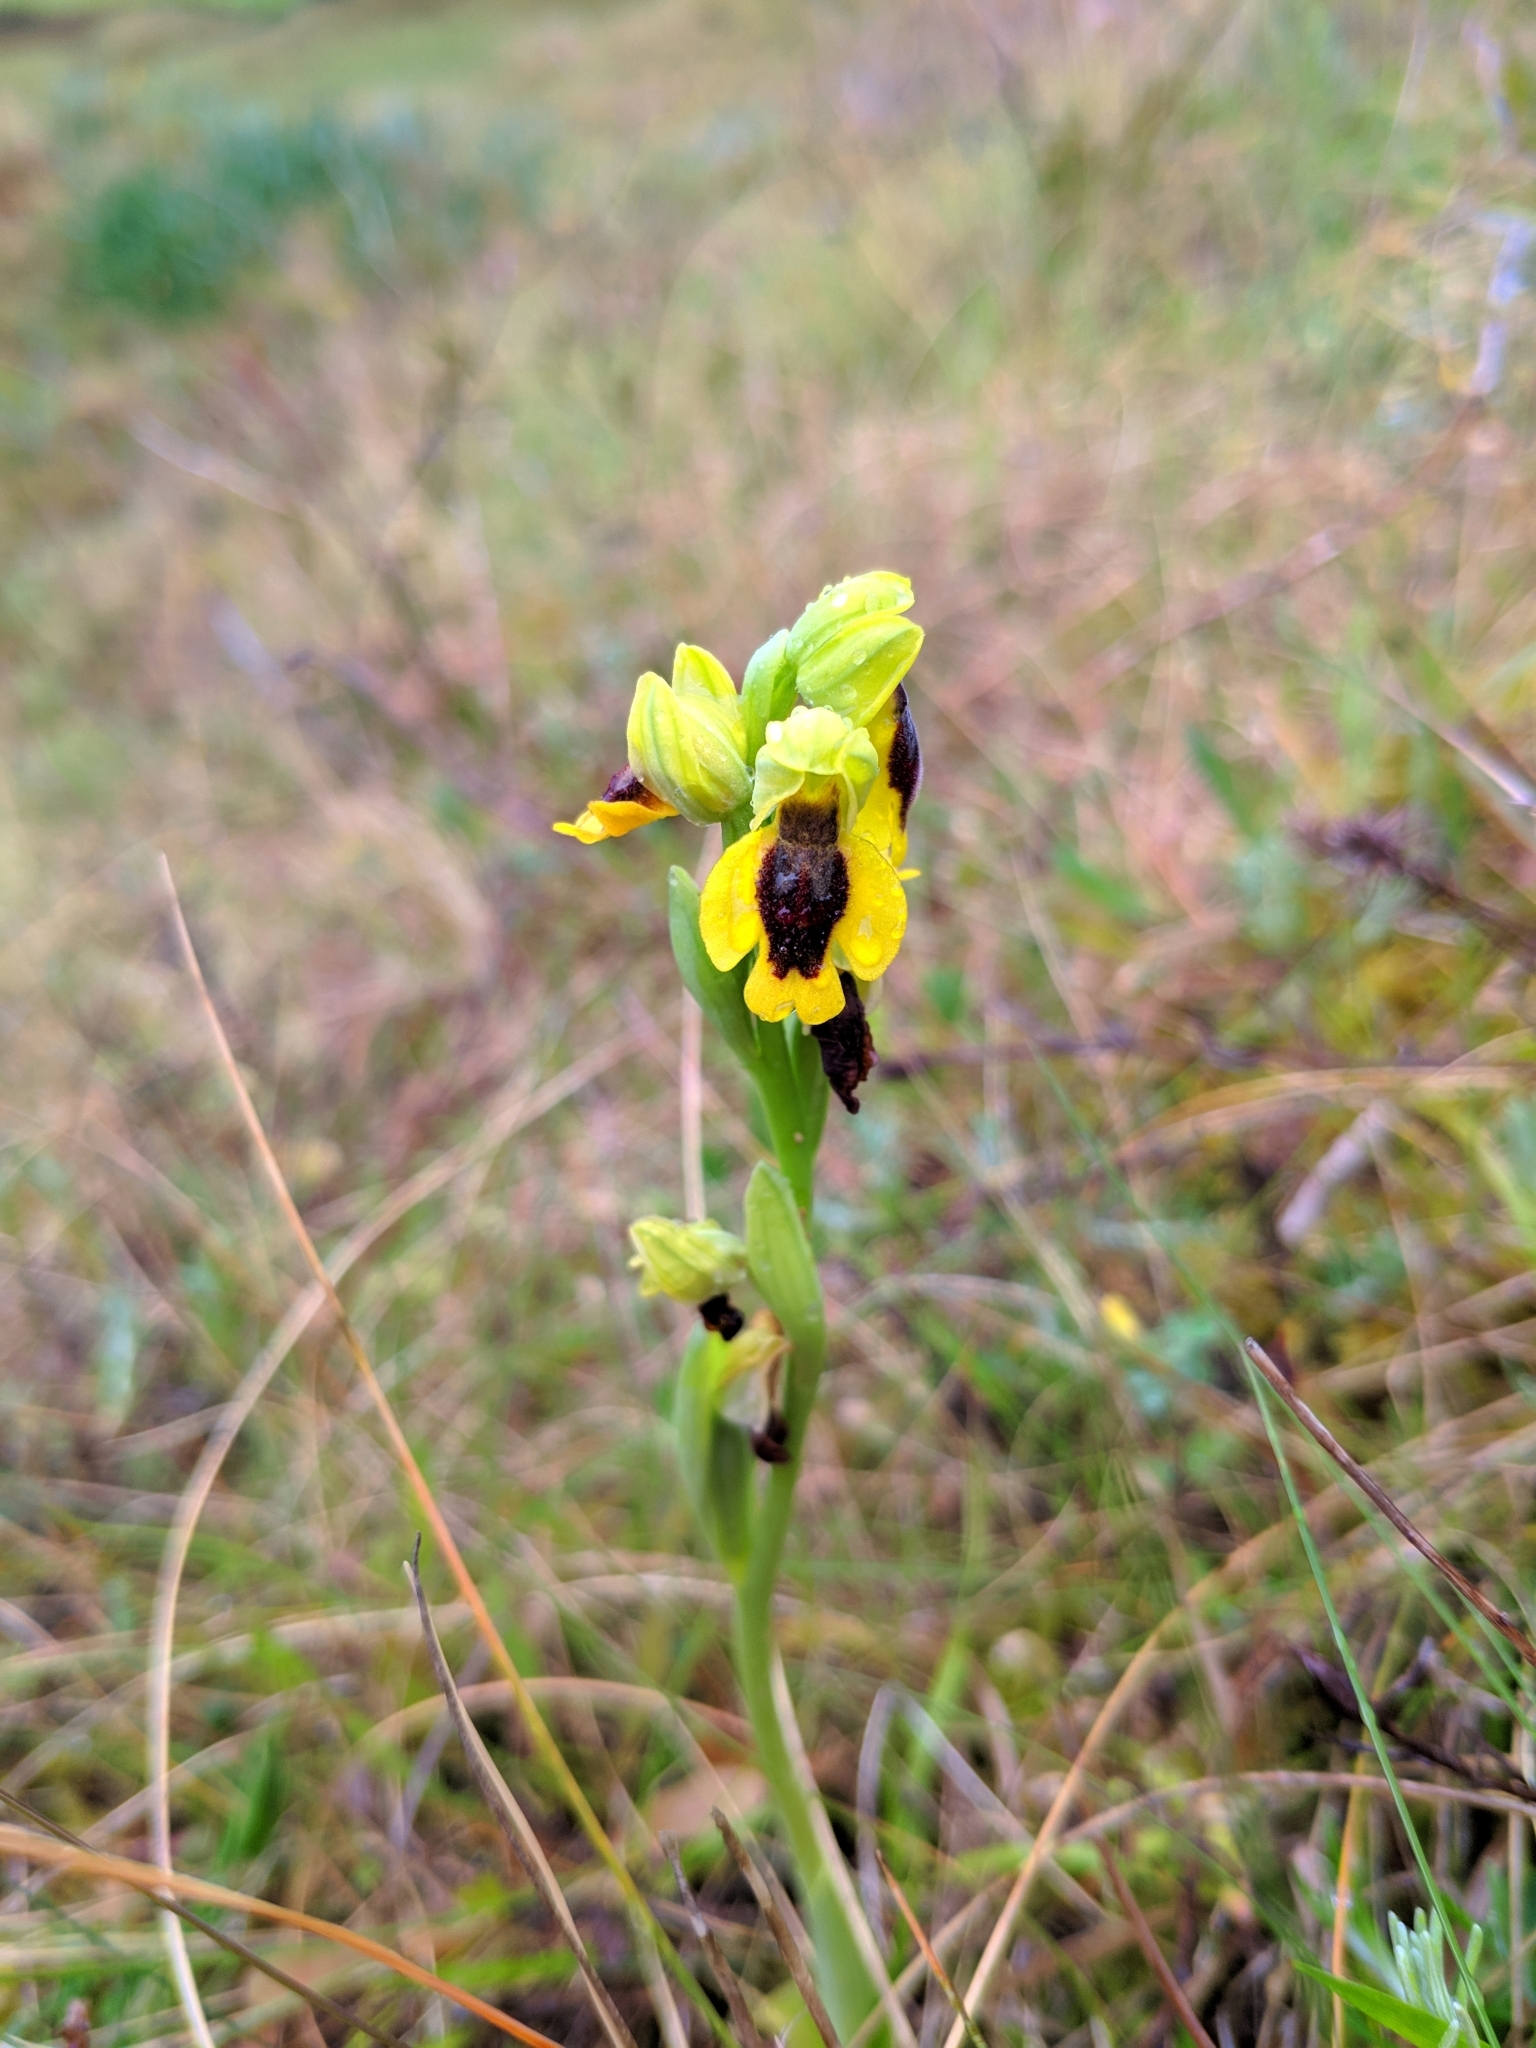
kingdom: Plantae
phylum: Tracheophyta
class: Liliopsida
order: Asparagales
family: Orchidaceae
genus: Ophrys
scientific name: Ophrys lutea
